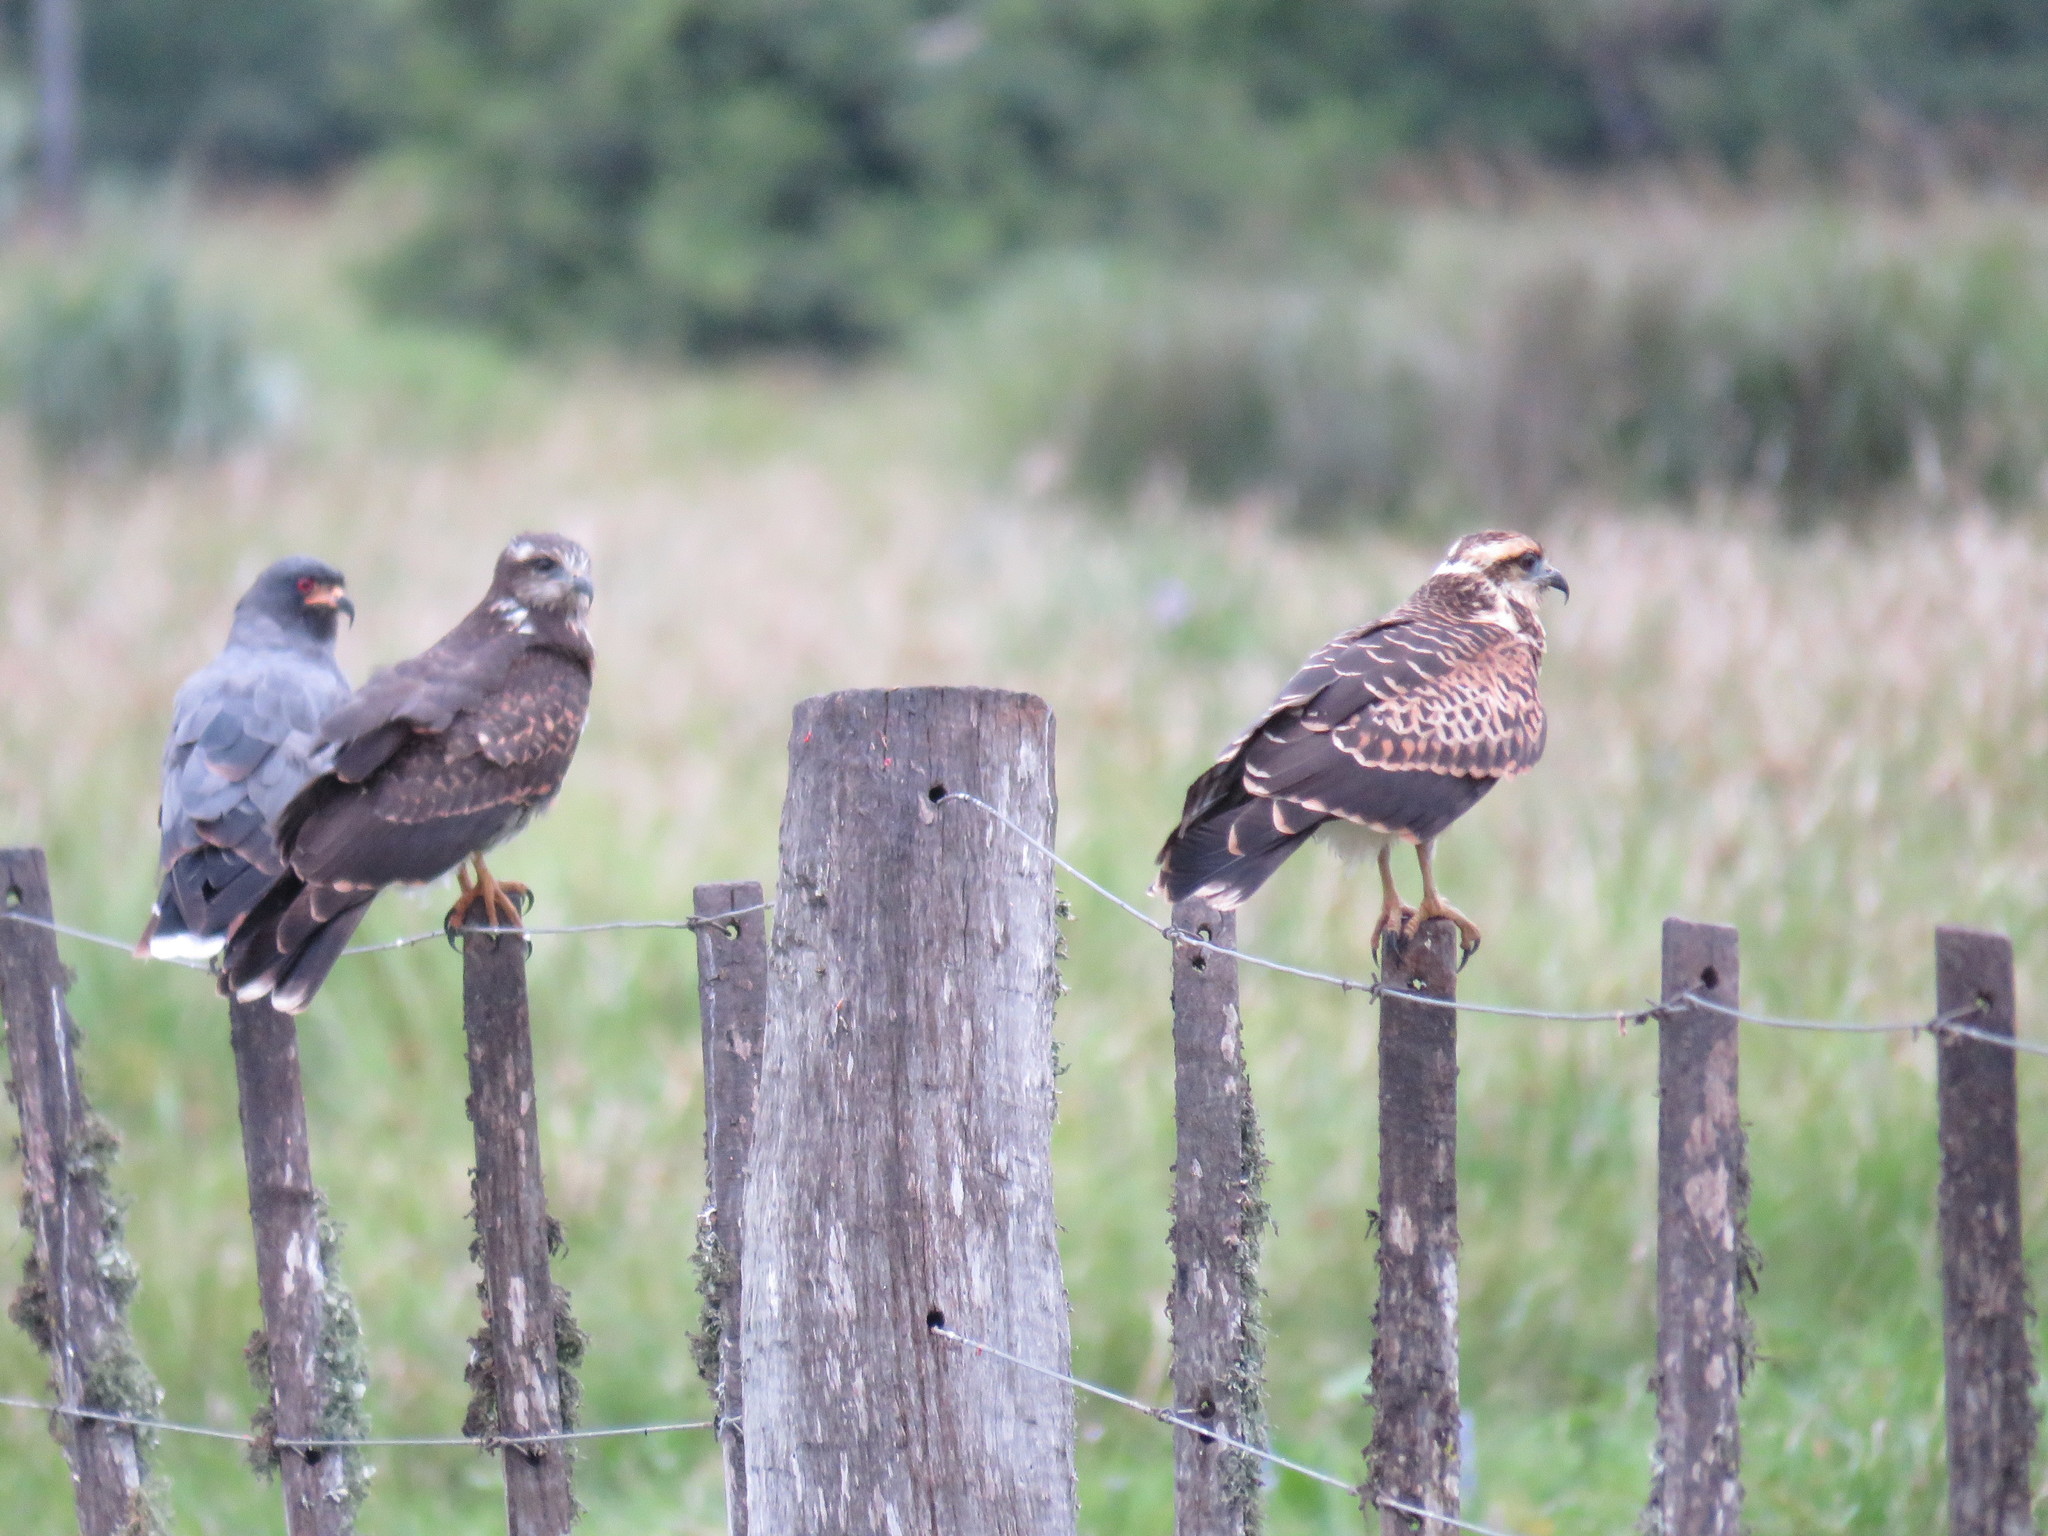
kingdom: Animalia
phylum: Chordata
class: Aves
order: Accipitriformes
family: Accipitridae
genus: Rostrhamus
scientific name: Rostrhamus sociabilis
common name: Snail kite
